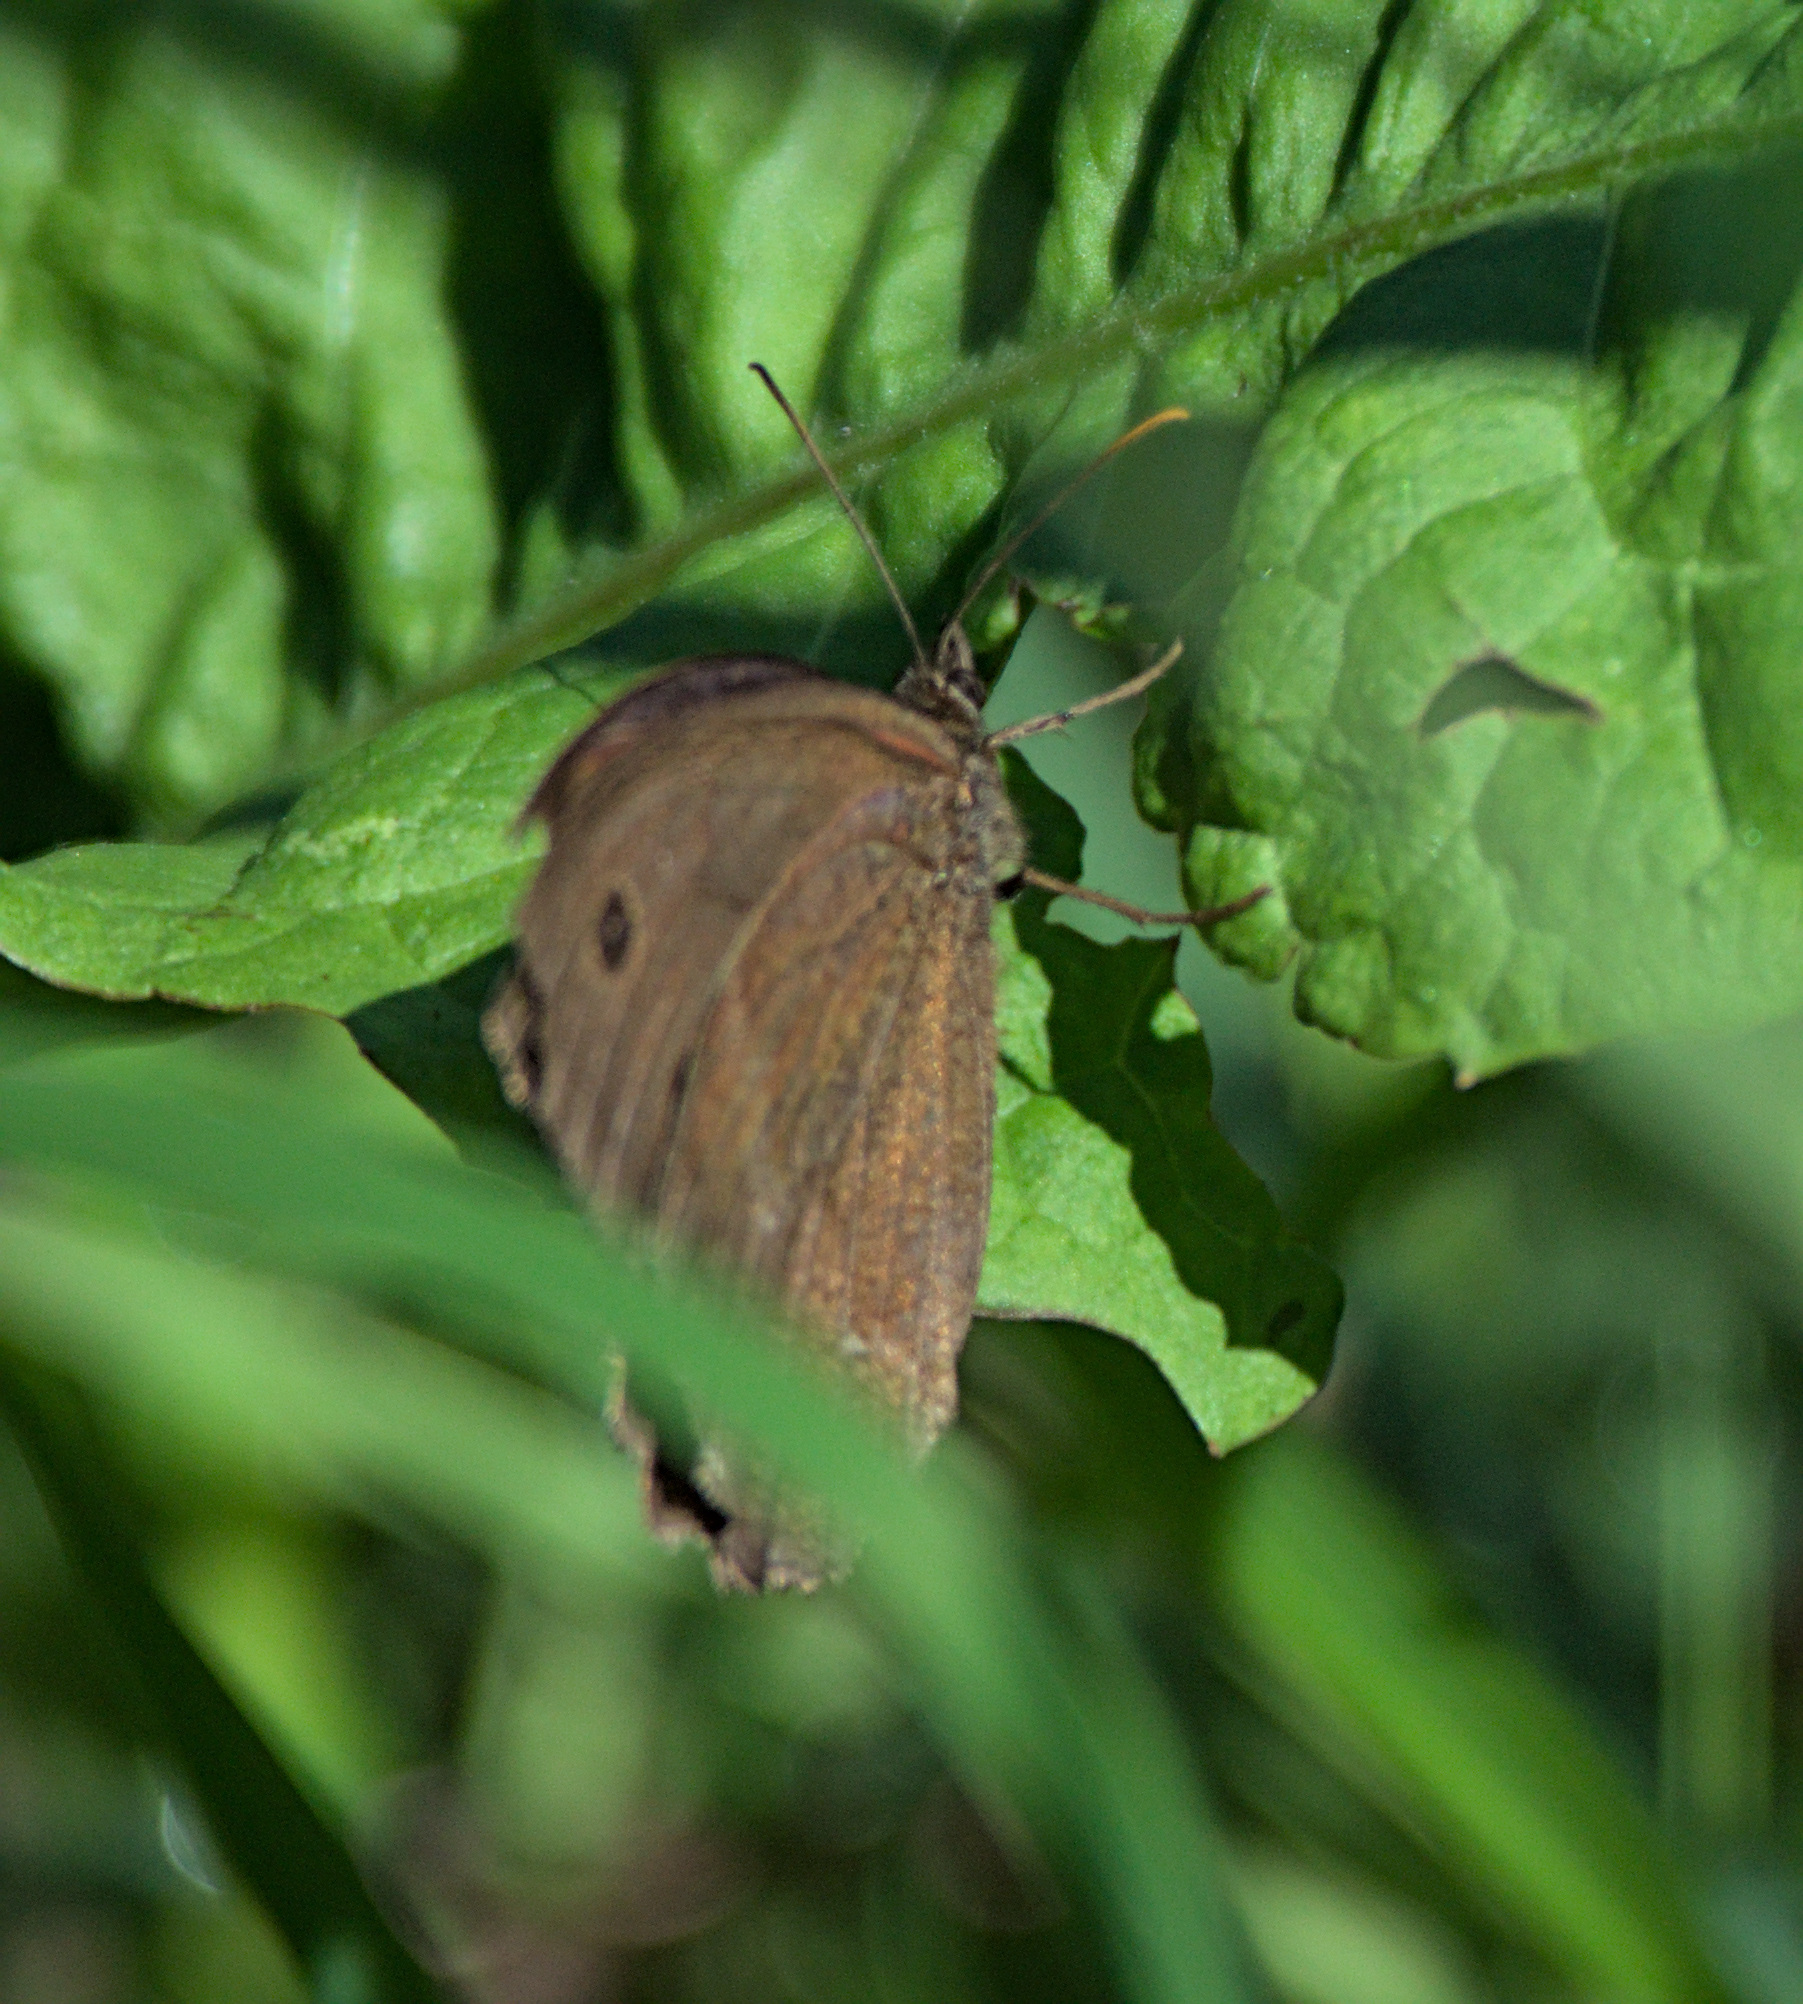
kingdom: Animalia
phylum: Arthropoda
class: Insecta
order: Lepidoptera
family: Nymphalidae
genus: Minois
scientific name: Minois dryas
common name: Dryad
